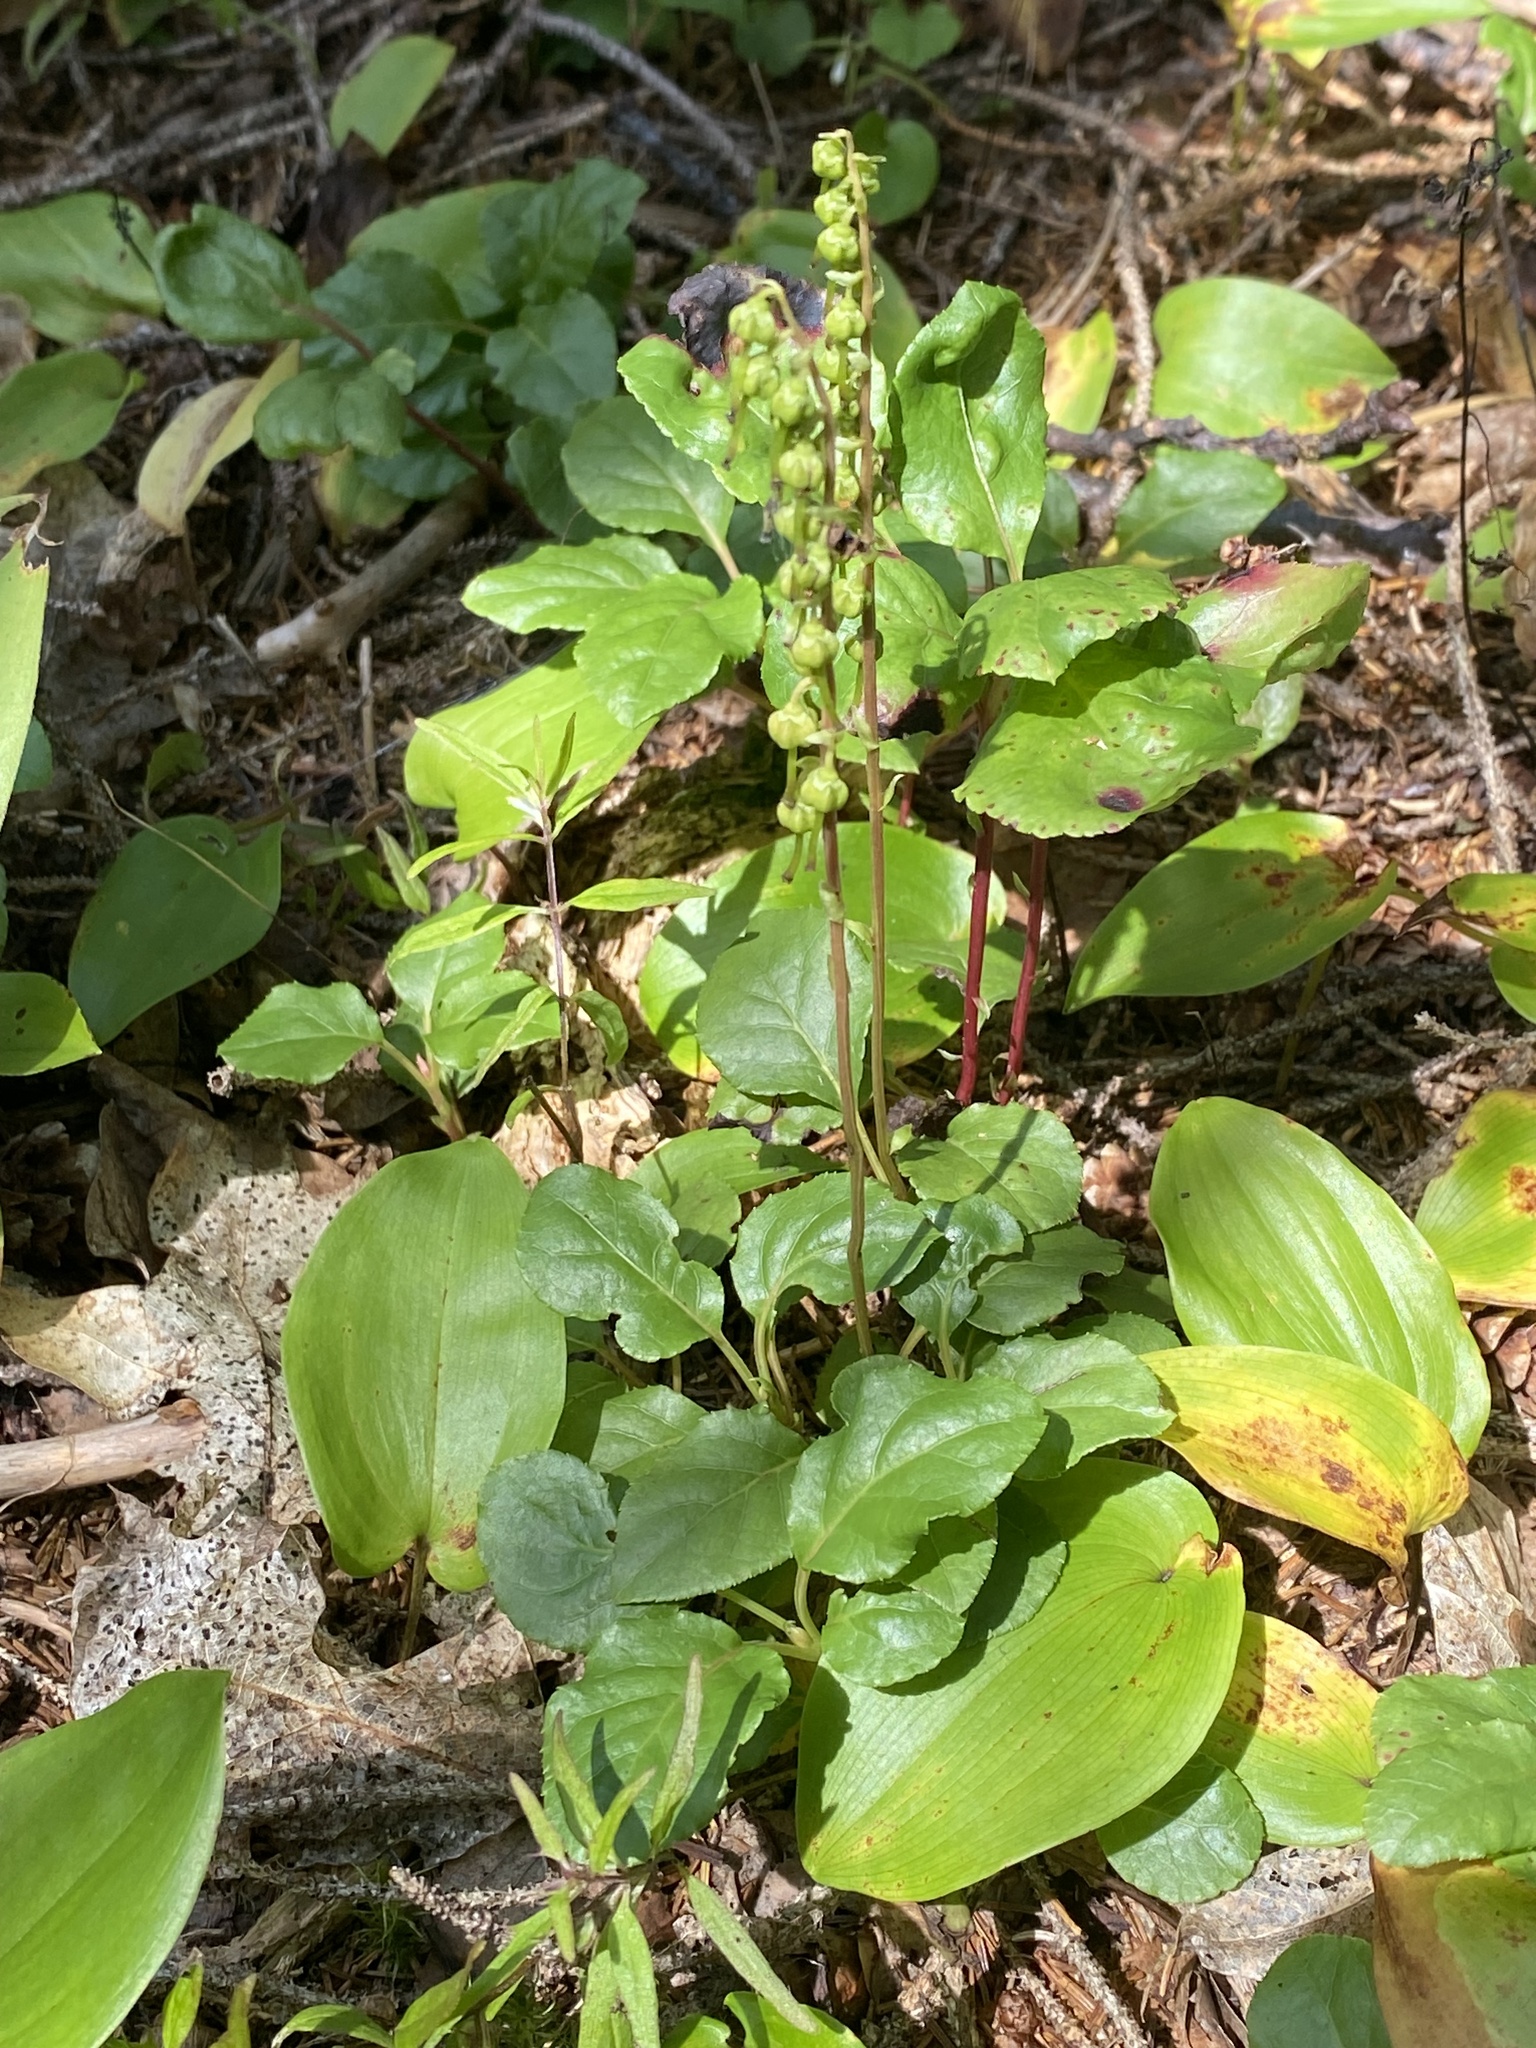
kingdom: Plantae
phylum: Tracheophyta
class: Magnoliopsida
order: Ericales
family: Ericaceae
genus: Orthilia
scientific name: Orthilia secunda
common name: One-sided orthilia
